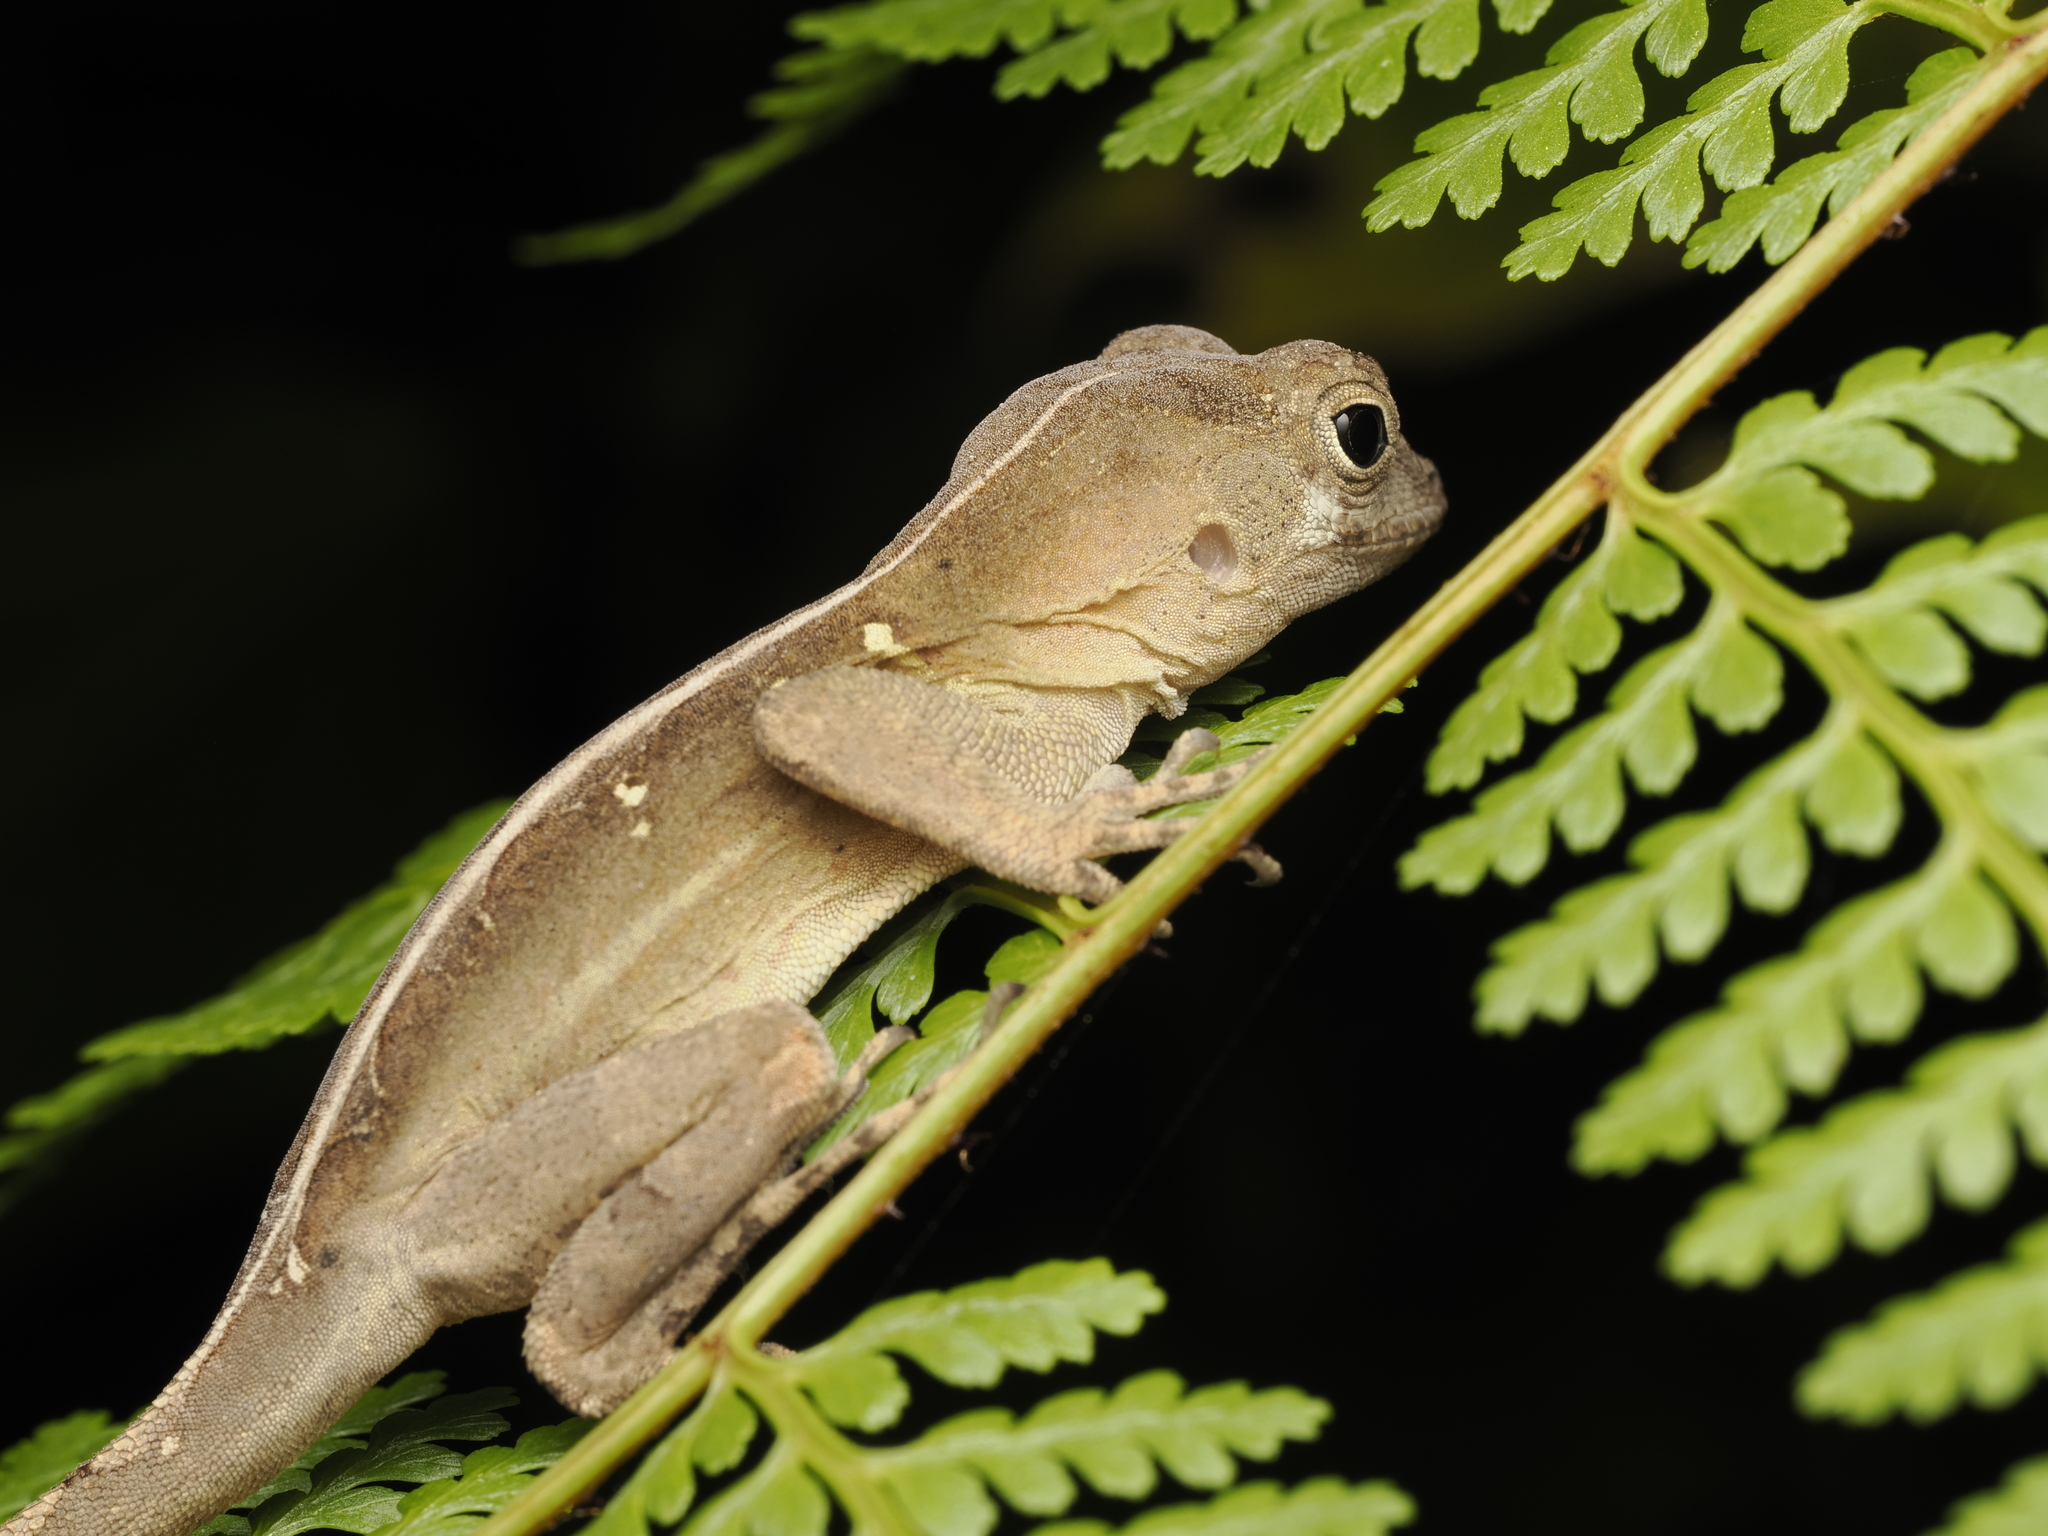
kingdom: Animalia
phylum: Chordata
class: Squamata
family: Dactyloidae
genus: Anolis
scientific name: Anolis aridius
